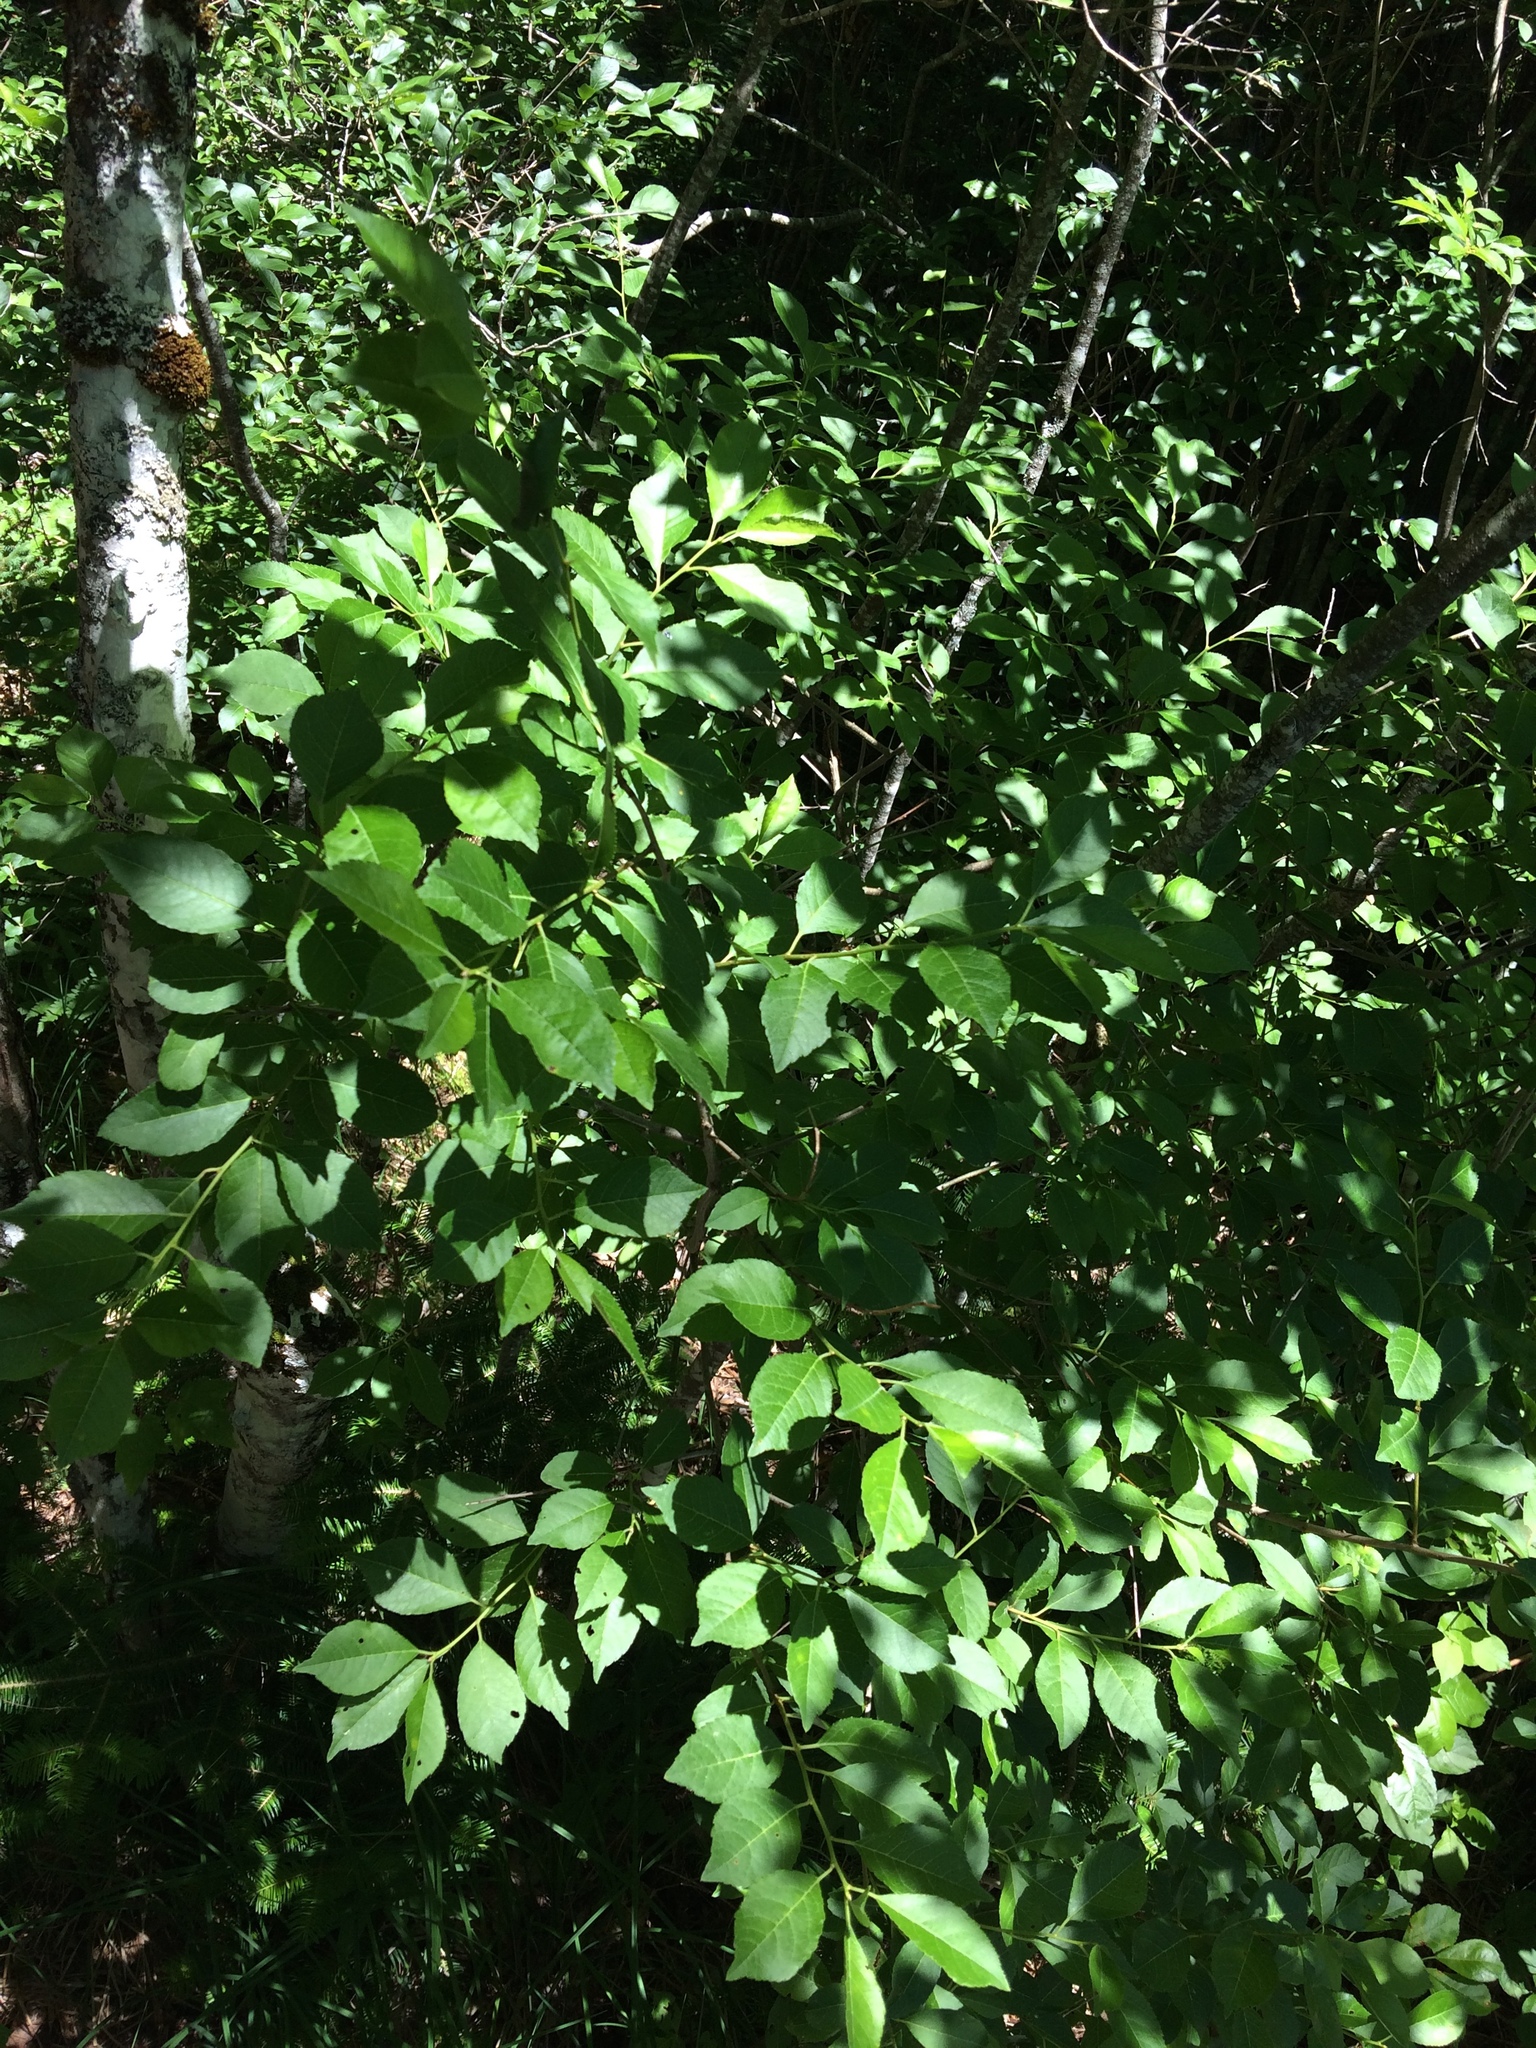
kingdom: Plantae
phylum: Tracheophyta
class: Magnoliopsida
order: Aquifoliales
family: Aquifoliaceae
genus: Ilex
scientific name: Ilex verticillata
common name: Virginia winterberry
